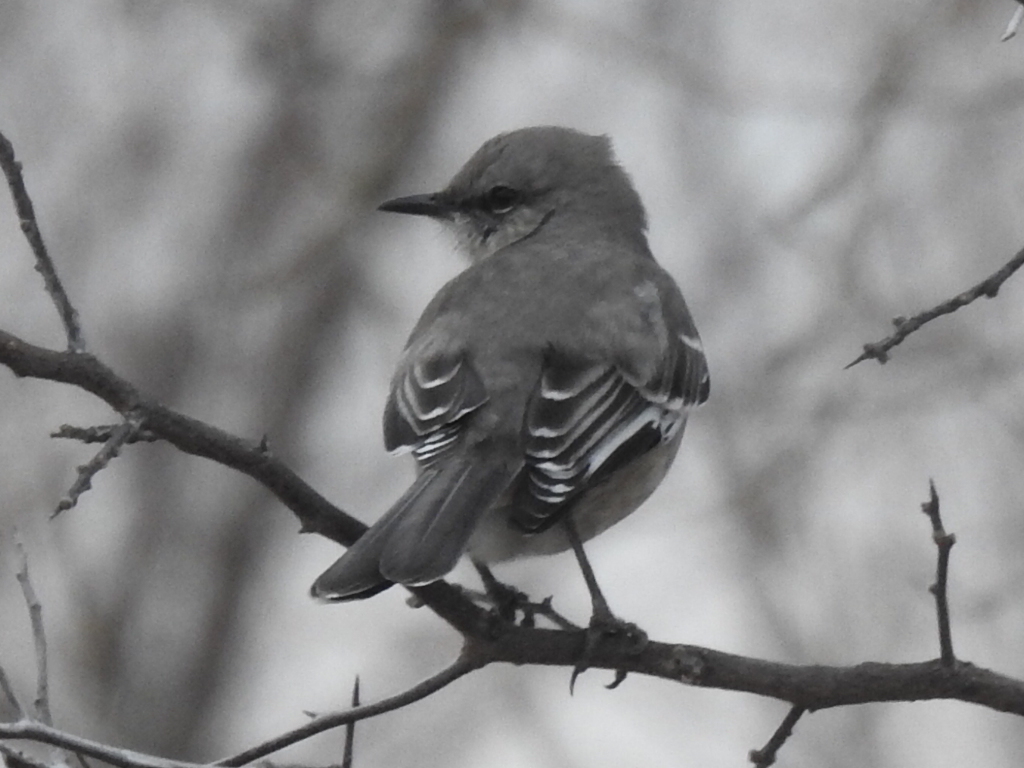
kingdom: Animalia
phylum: Chordata
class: Aves
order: Passeriformes
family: Mimidae
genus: Mimus
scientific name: Mimus polyglottos
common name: Northern mockingbird
